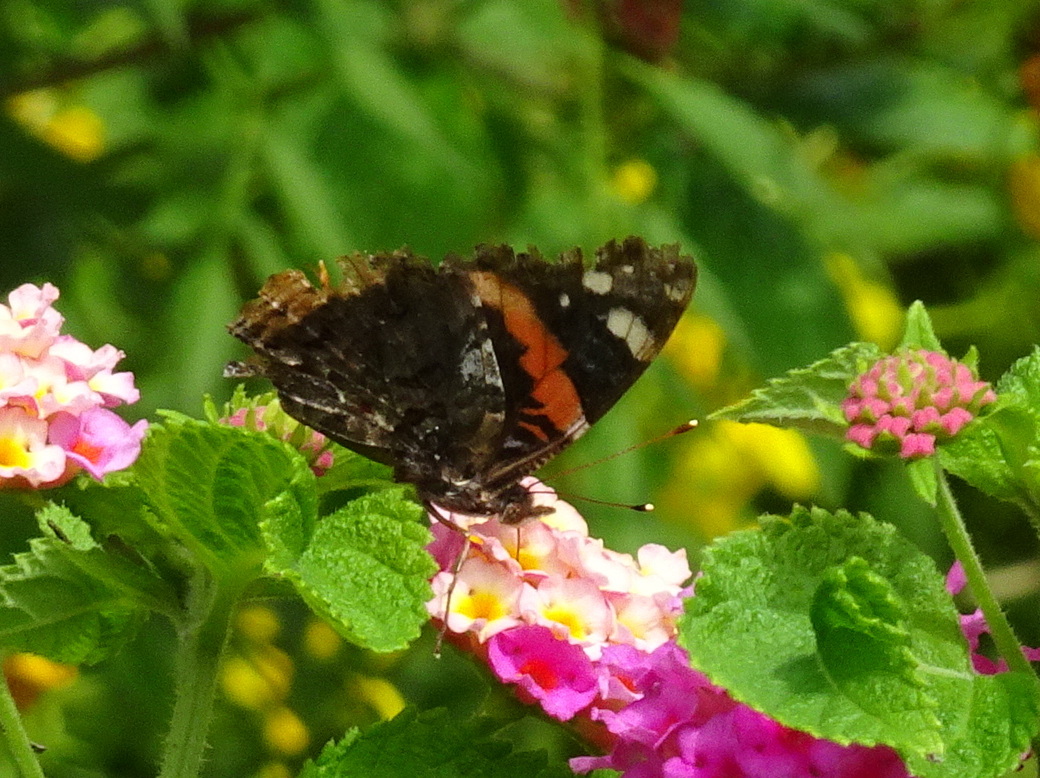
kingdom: Animalia
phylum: Arthropoda
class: Insecta
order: Lepidoptera
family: Nymphalidae
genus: Vanessa
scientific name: Vanessa atalanta
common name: Red admiral
